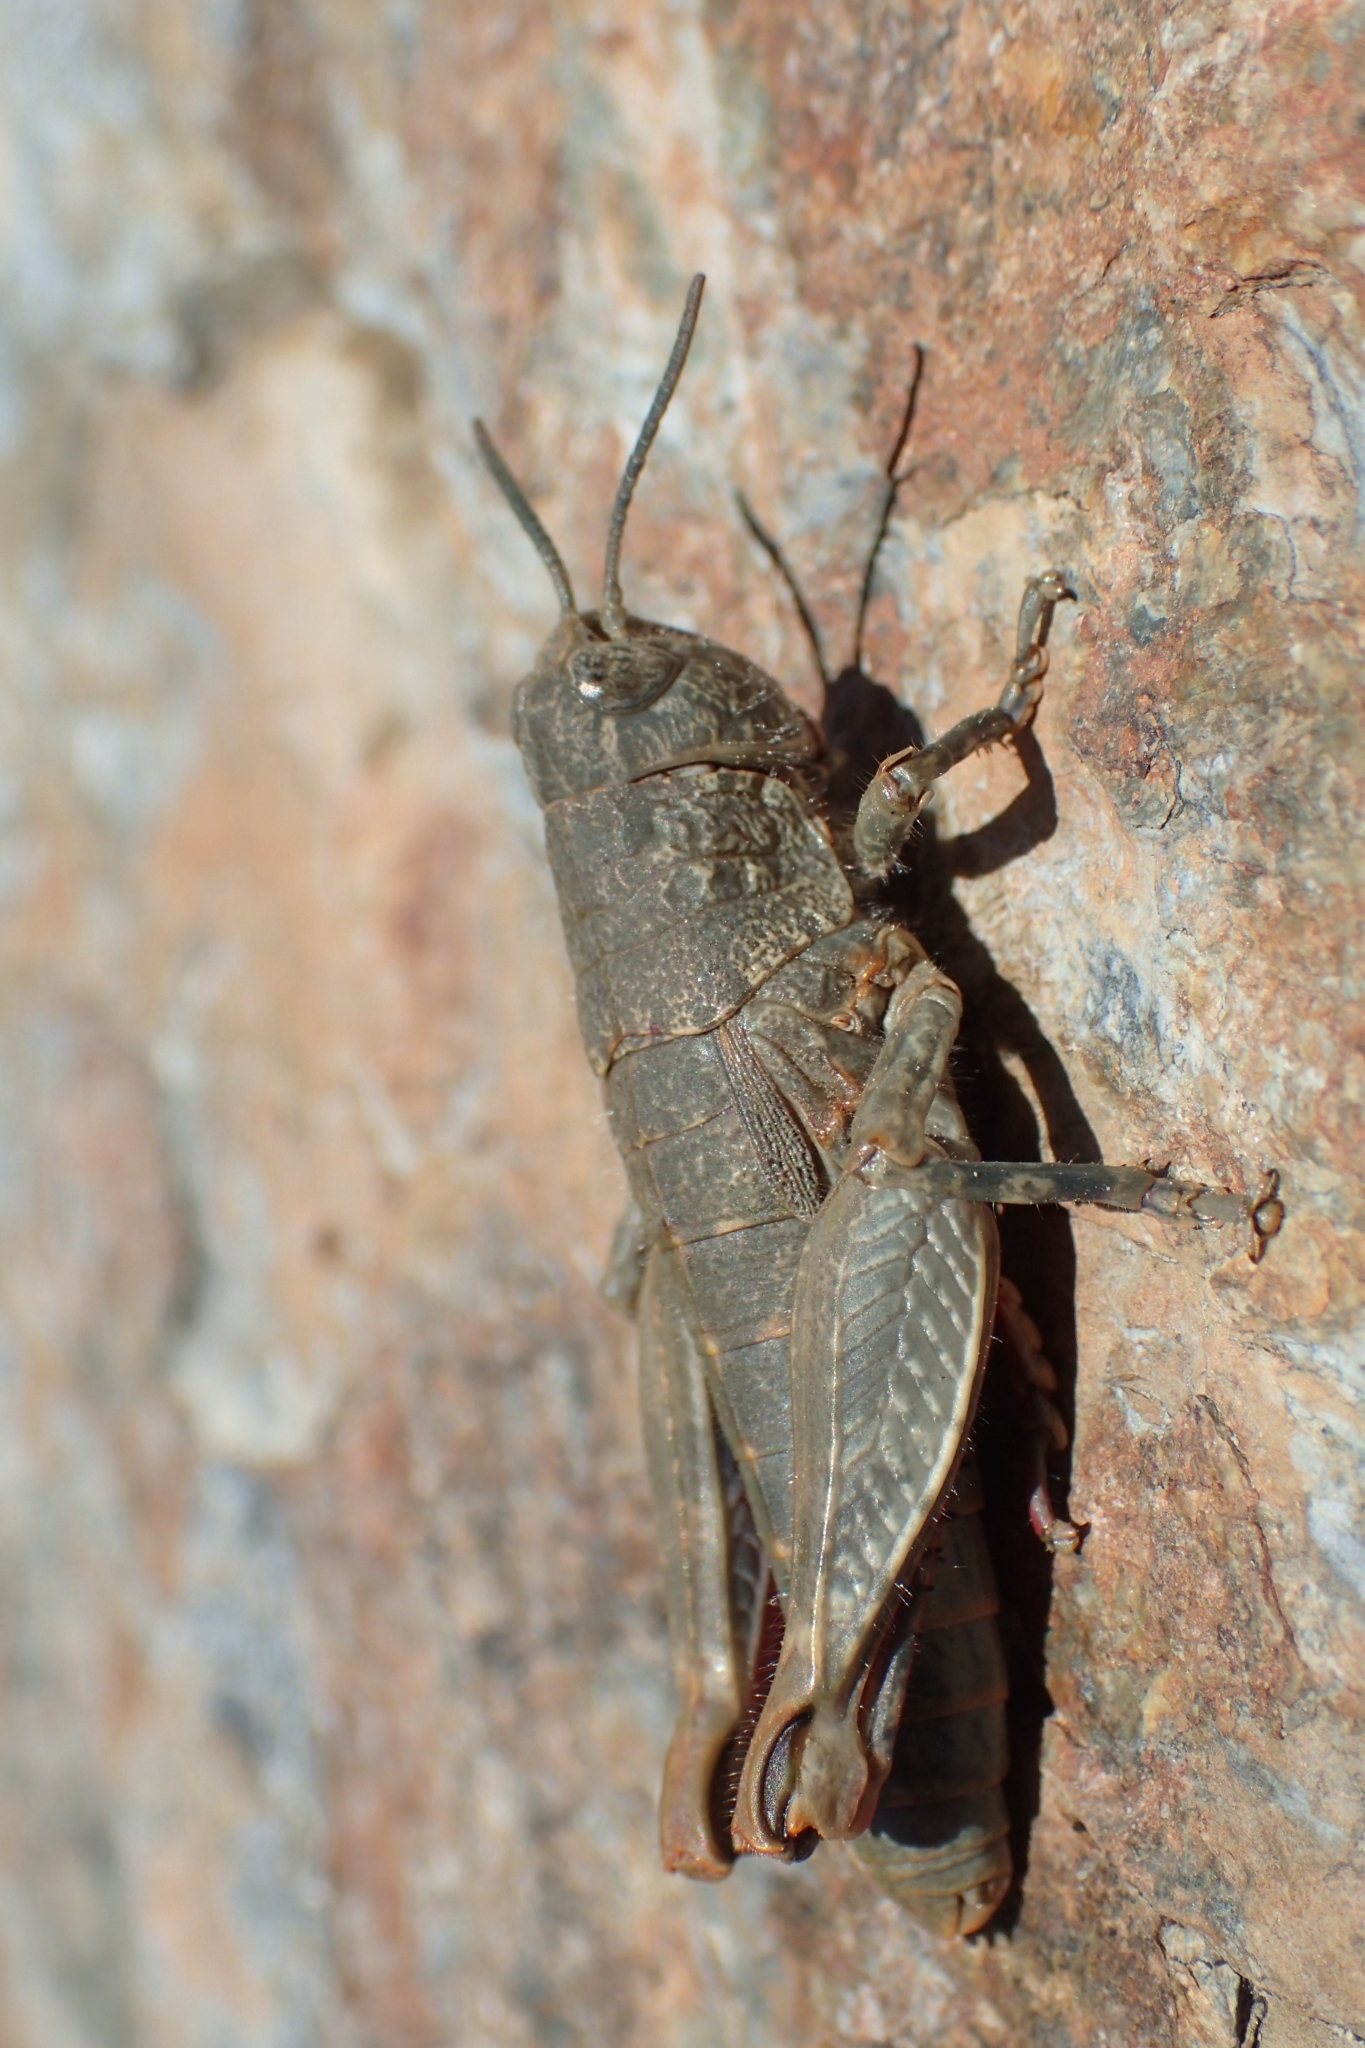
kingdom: Animalia
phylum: Arthropoda
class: Insecta
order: Orthoptera
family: Acrididae
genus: Sigaus
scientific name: Sigaus
